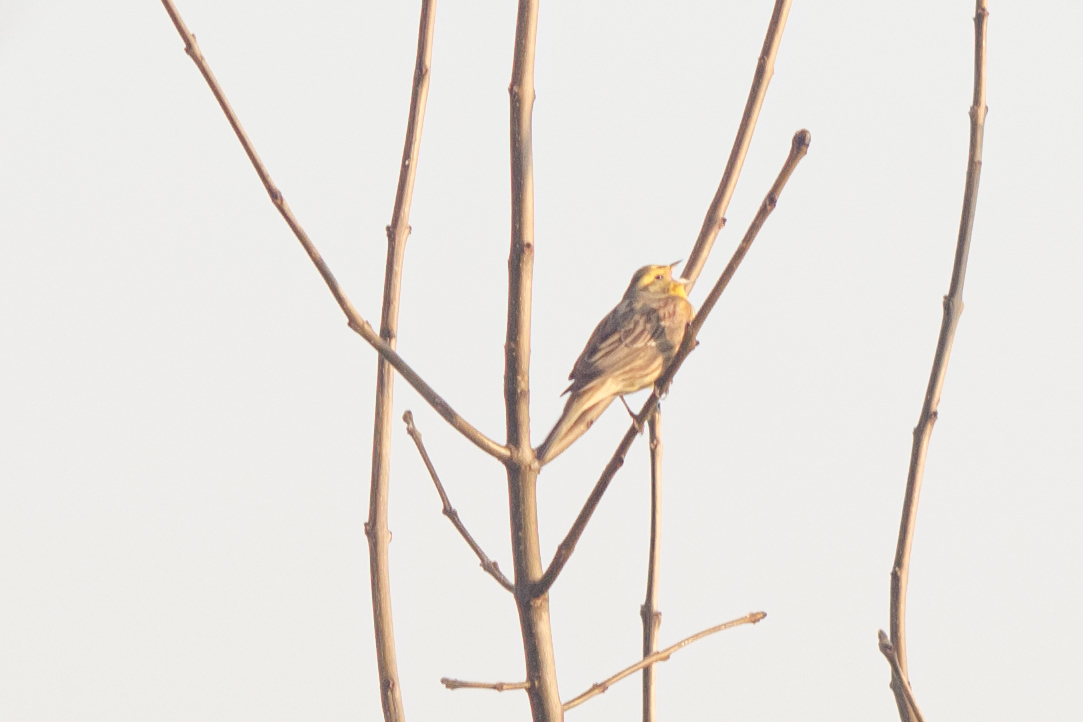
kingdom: Animalia
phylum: Chordata
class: Aves
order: Passeriformes
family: Emberizidae
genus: Emberiza
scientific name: Emberiza citrinella
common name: Yellowhammer
